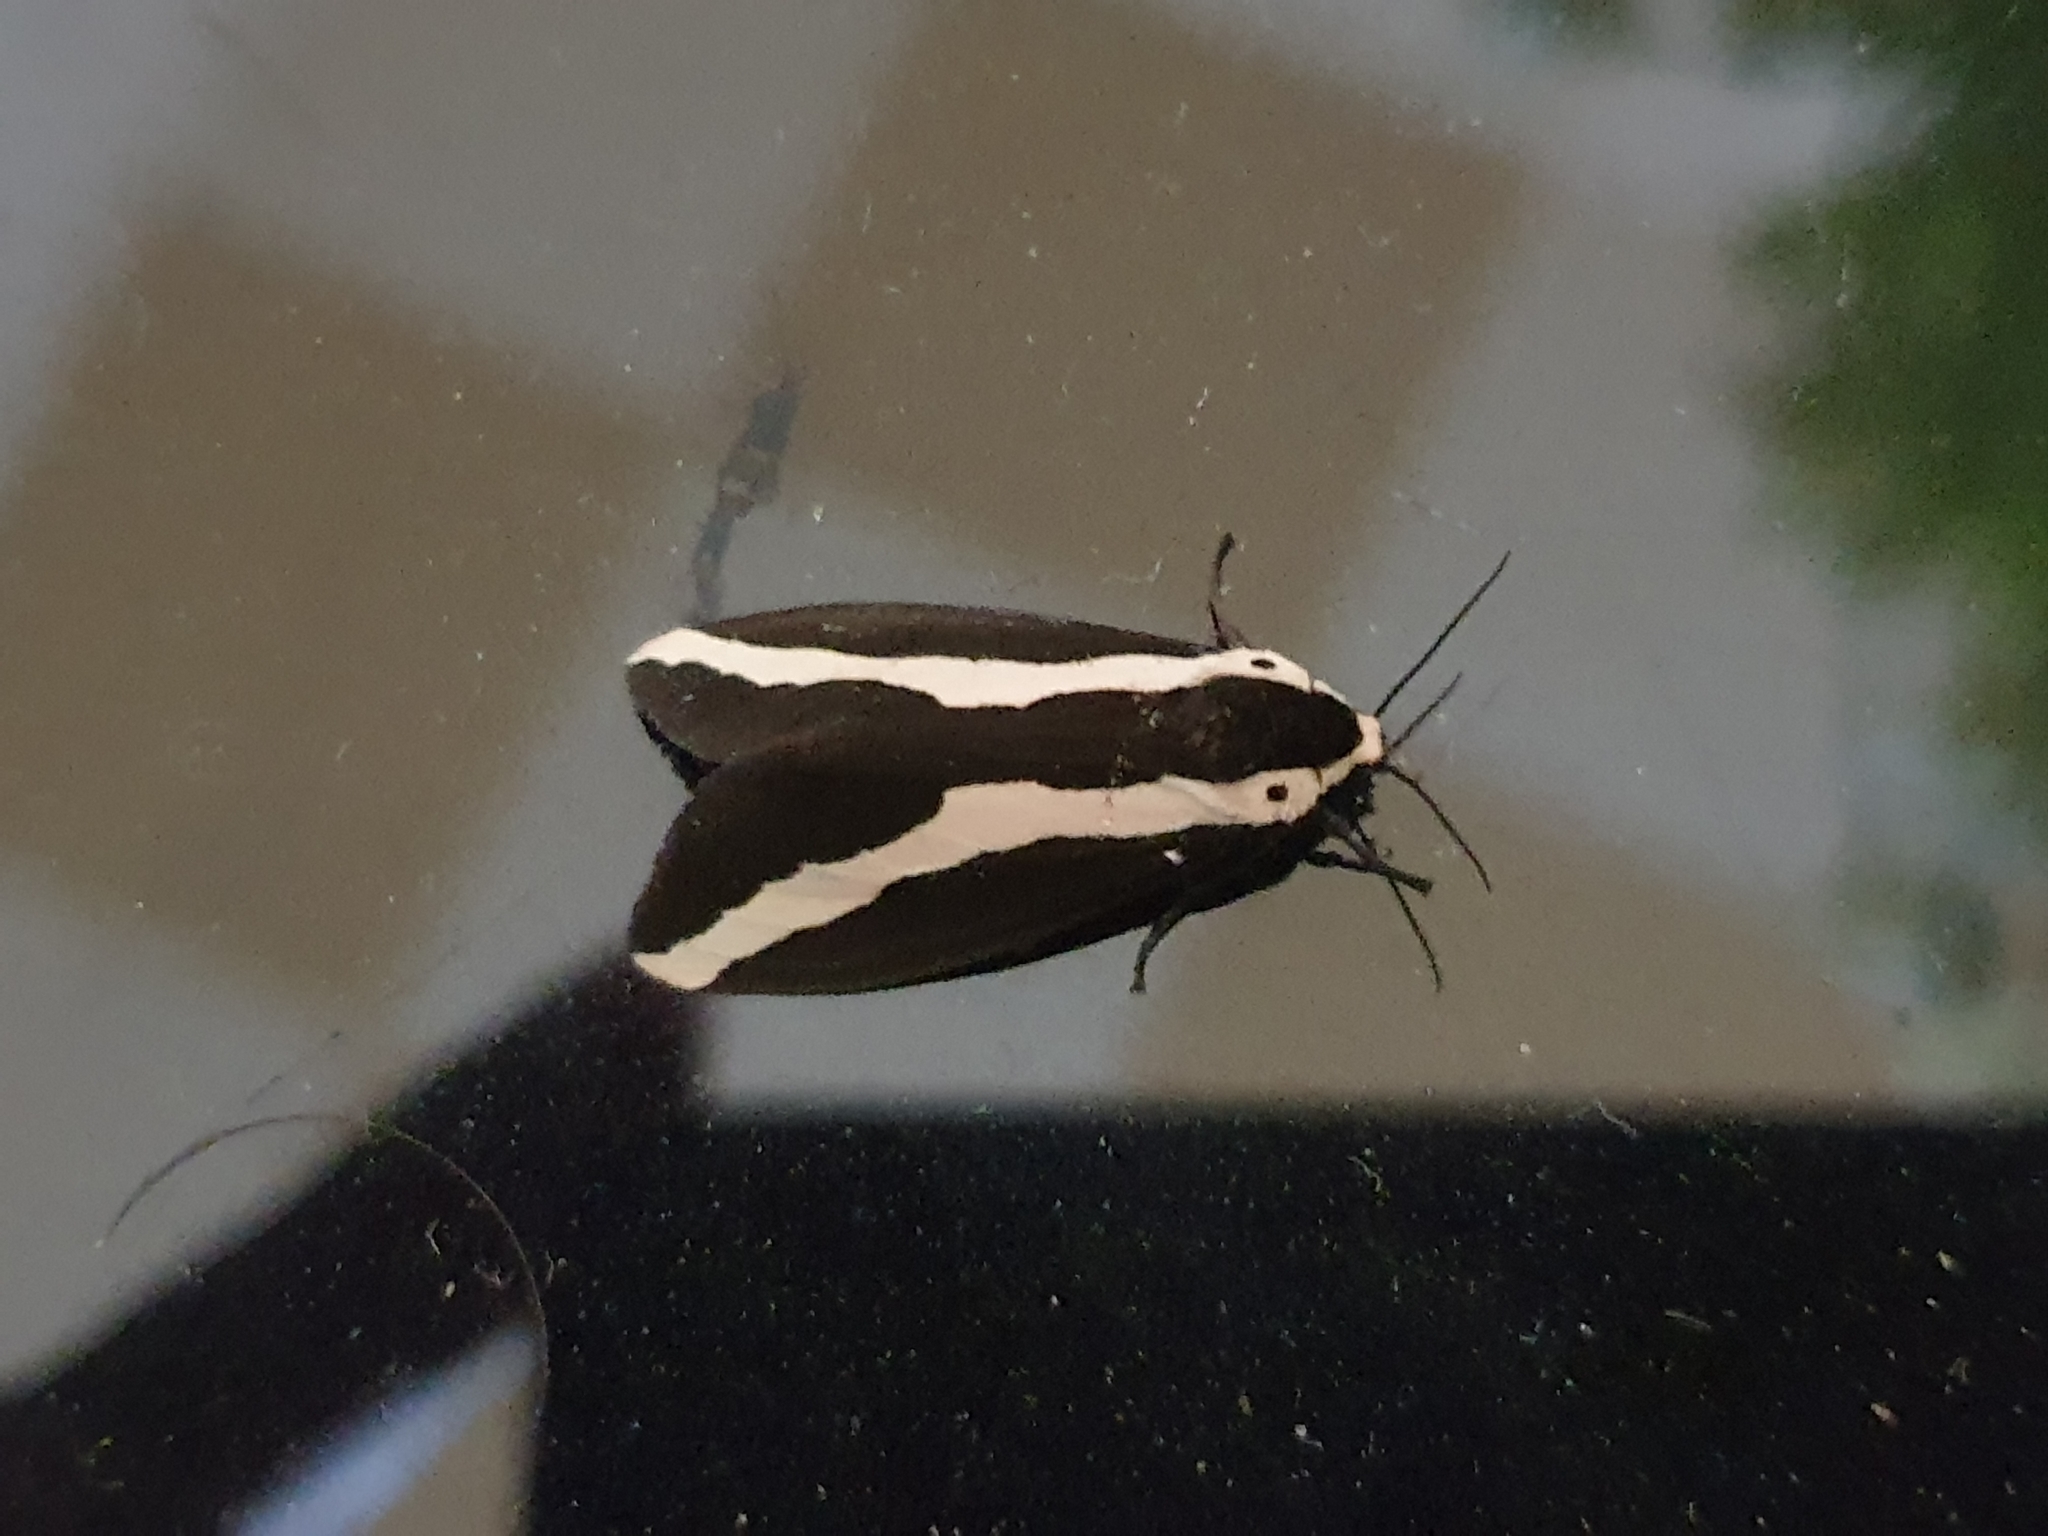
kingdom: Animalia
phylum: Arthropoda
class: Insecta
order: Lepidoptera
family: Erebidae
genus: Estigmene
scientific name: Estigmene
